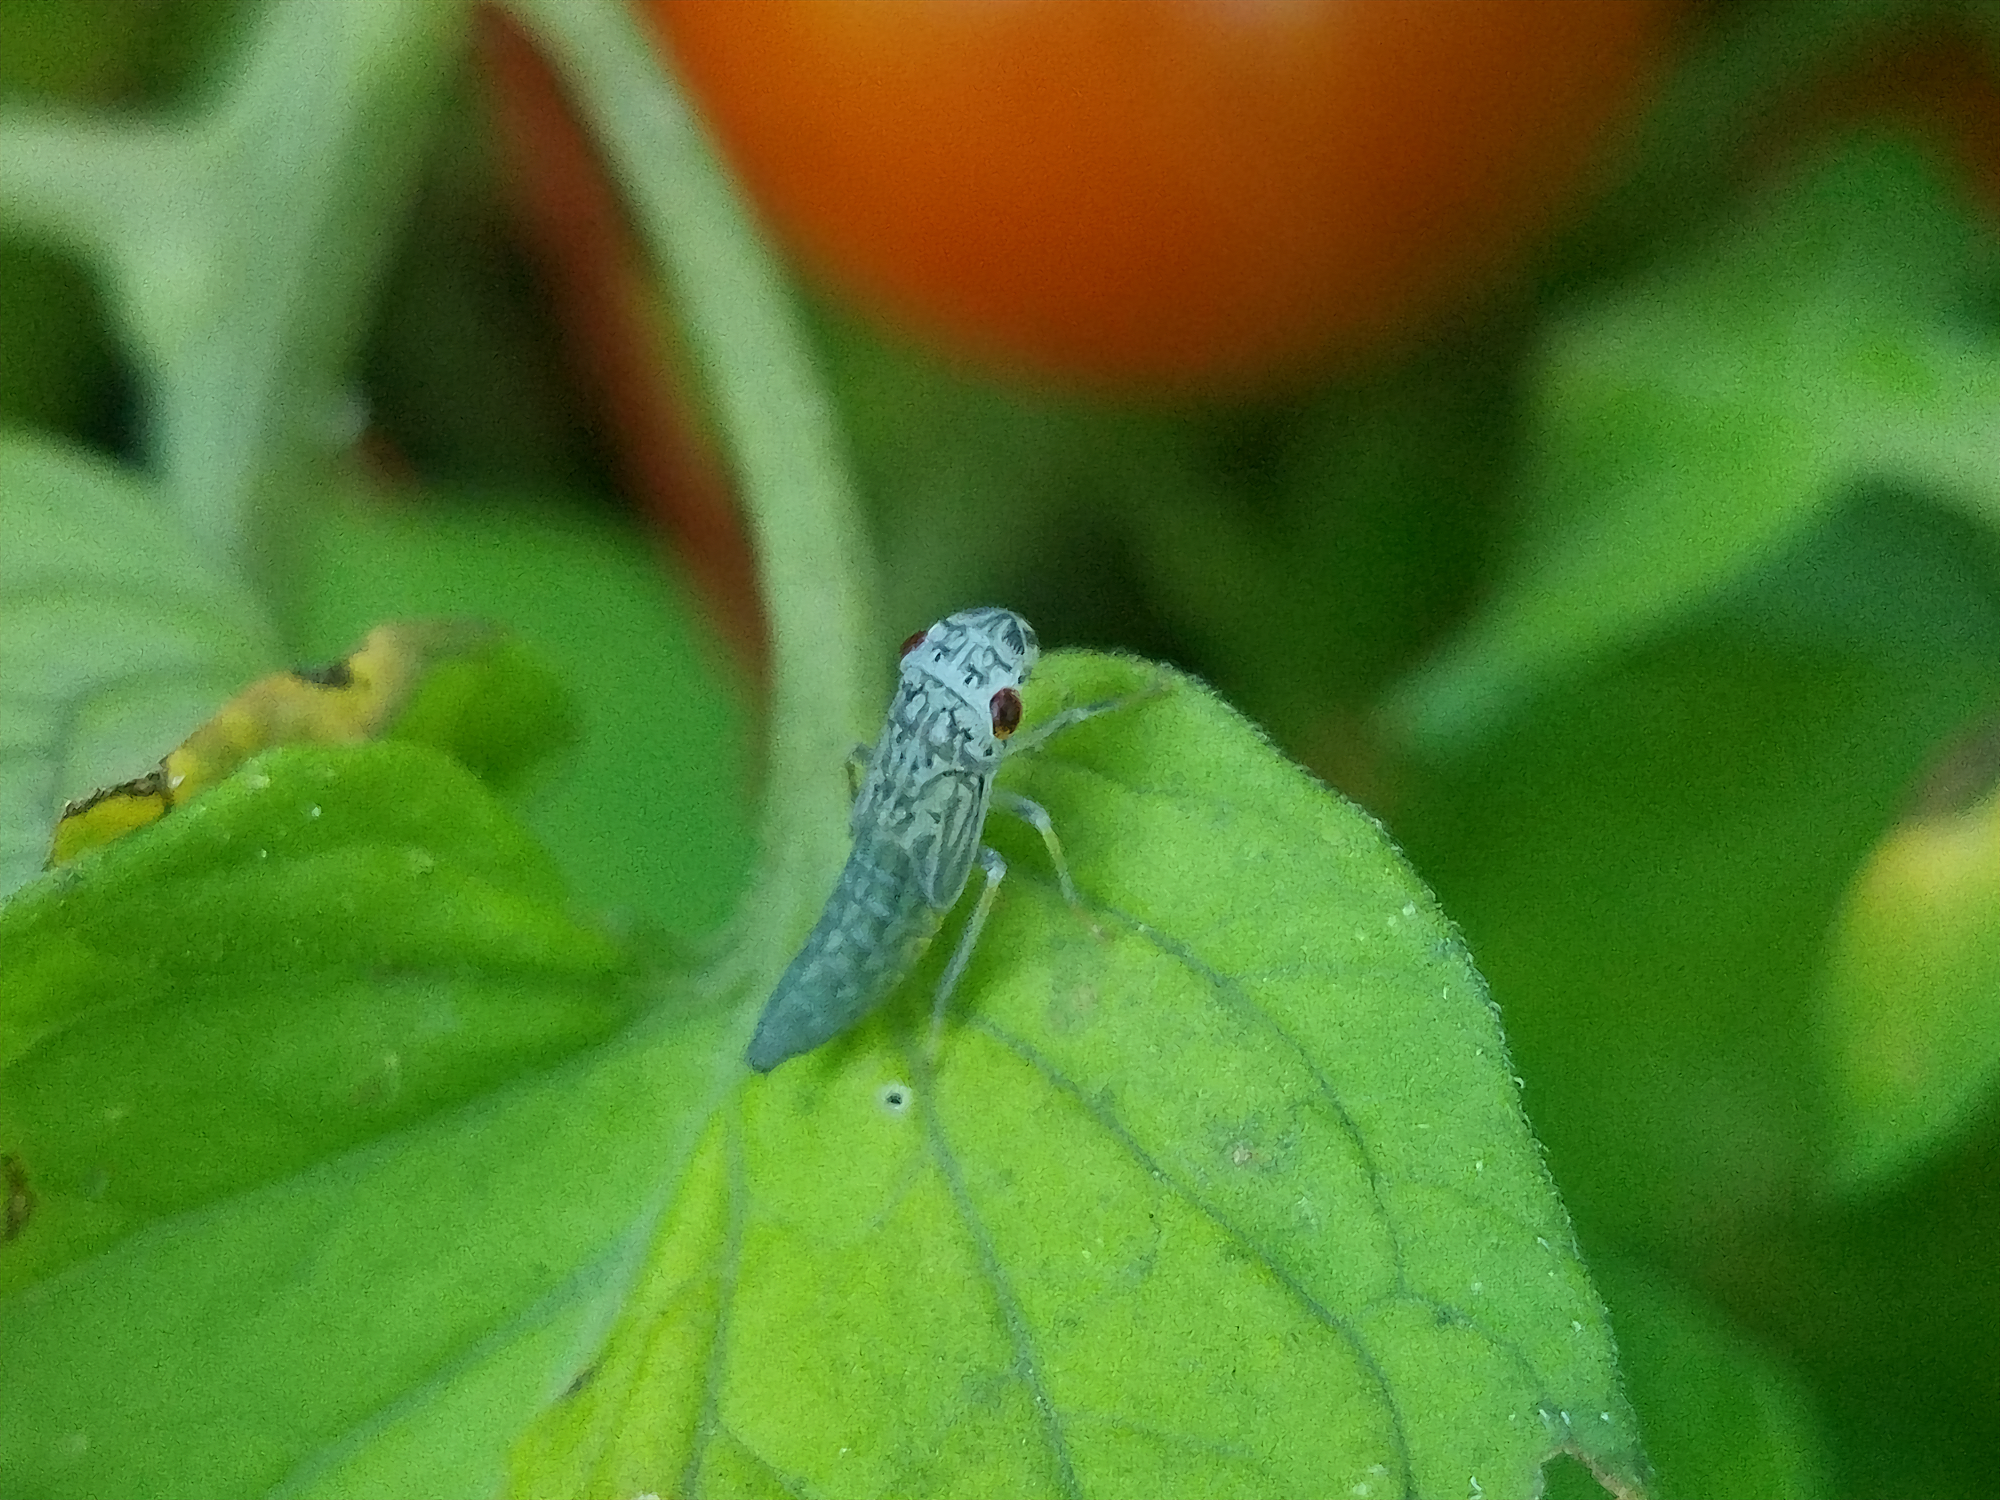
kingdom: Animalia
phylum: Arthropoda
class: Insecta
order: Hemiptera
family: Cicadellidae
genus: Oncometopia
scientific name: Oncometopia orbona
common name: Broad-headed sharpshooter
